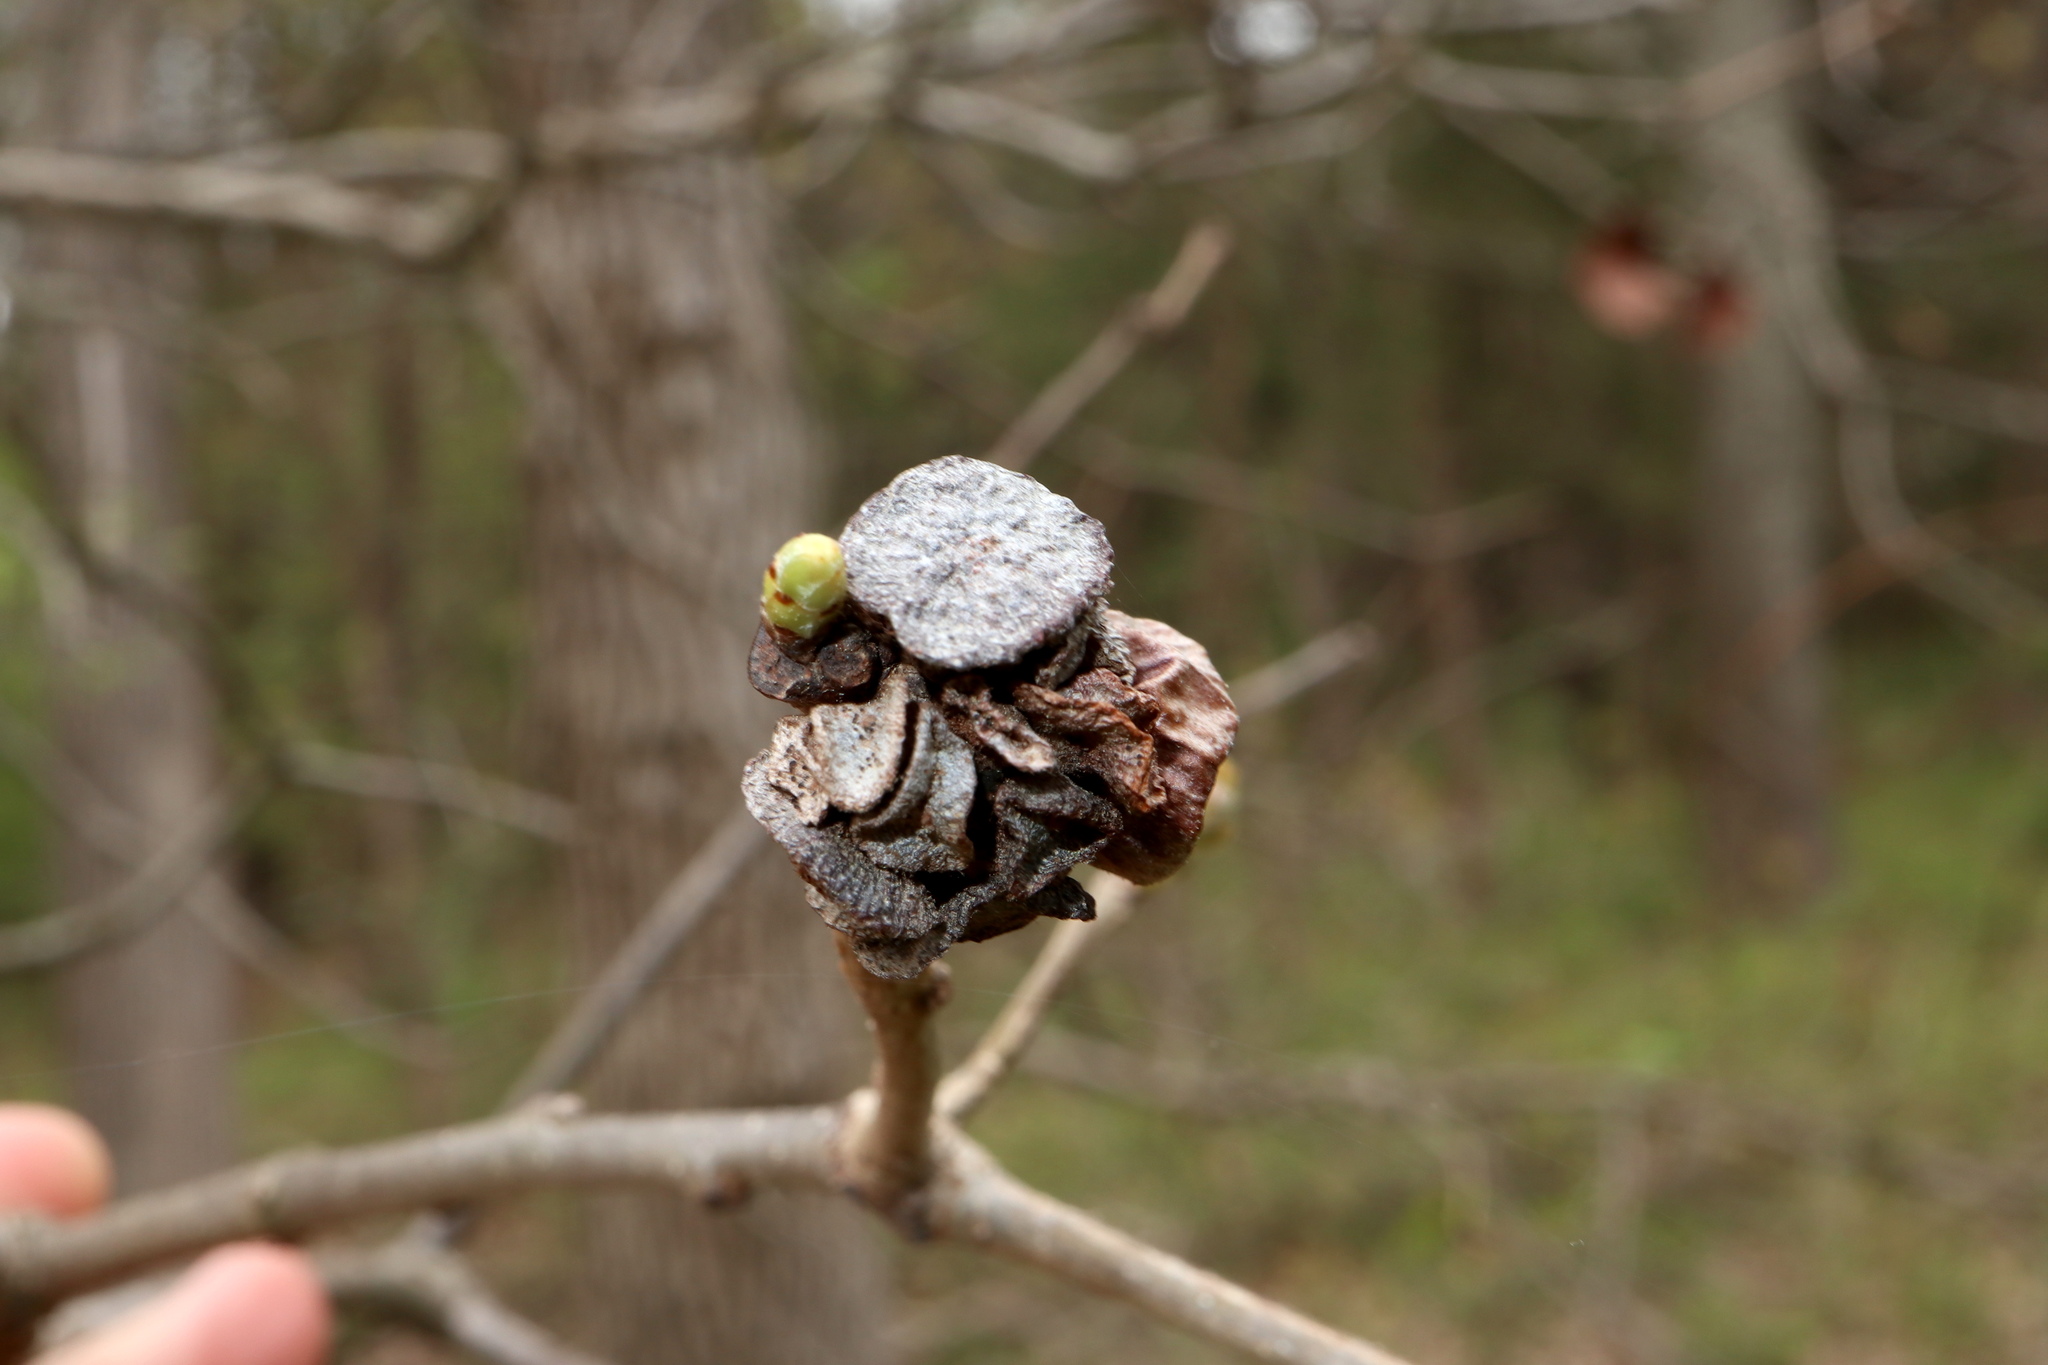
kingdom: Animalia
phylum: Arthropoda
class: Insecta
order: Hymenoptera
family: Cynipidae
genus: Andricus
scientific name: Andricus
